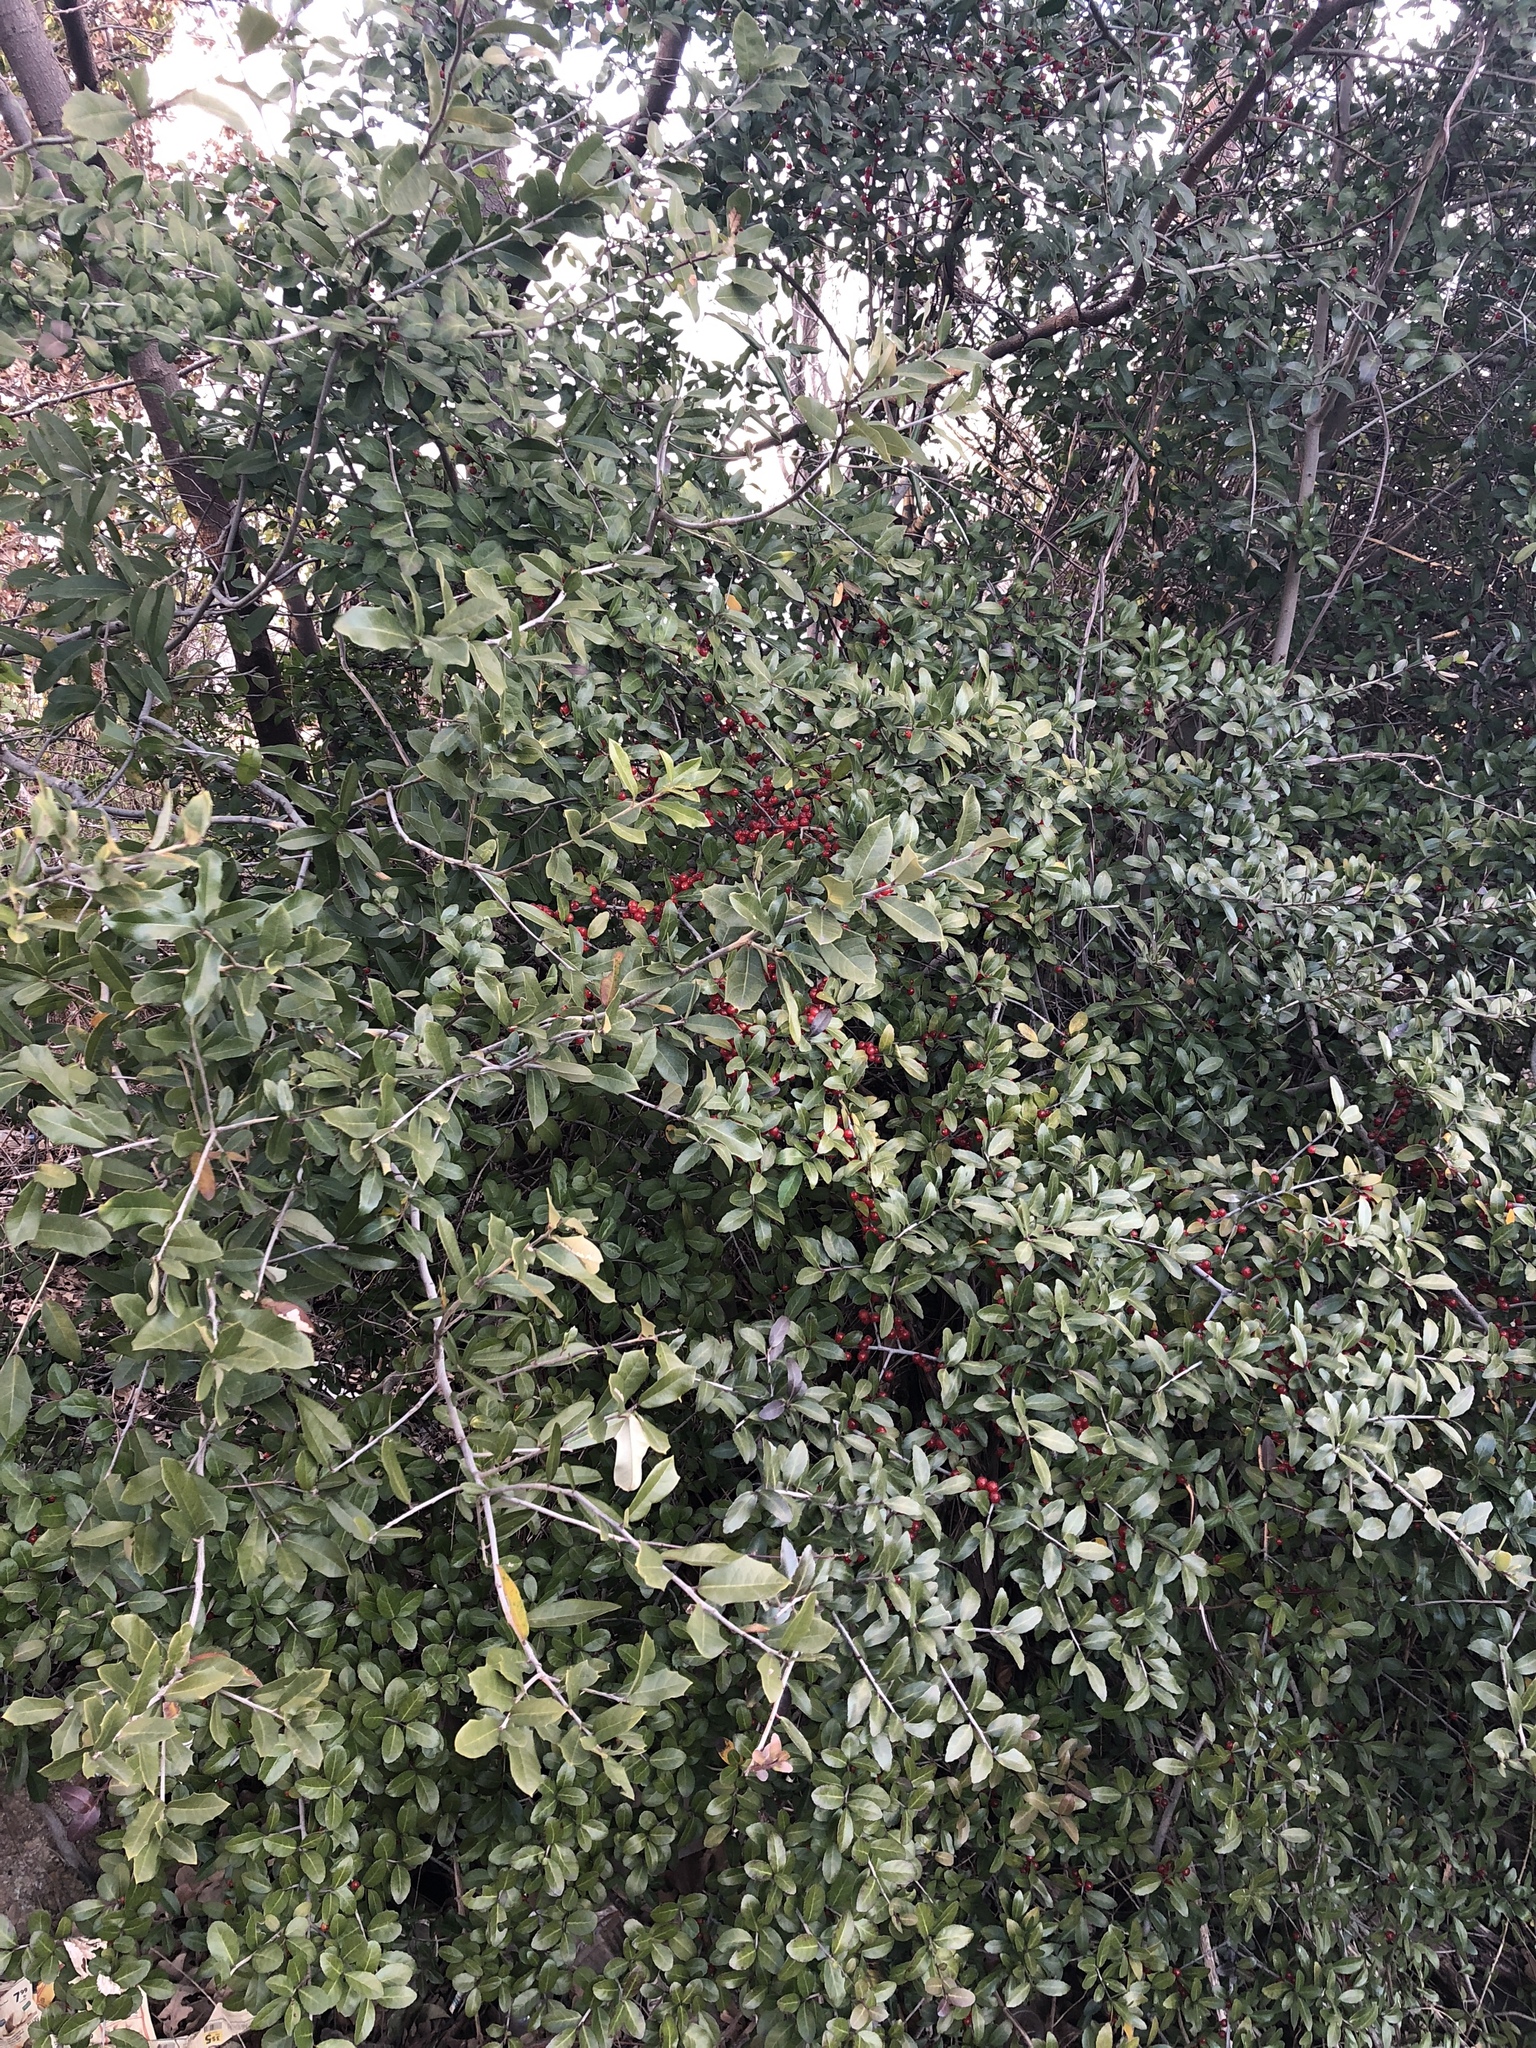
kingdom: Plantae
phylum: Tracheophyta
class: Magnoliopsida
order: Aquifoliales
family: Aquifoliaceae
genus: Ilex
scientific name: Ilex vomitoria
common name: Yaupon holly
